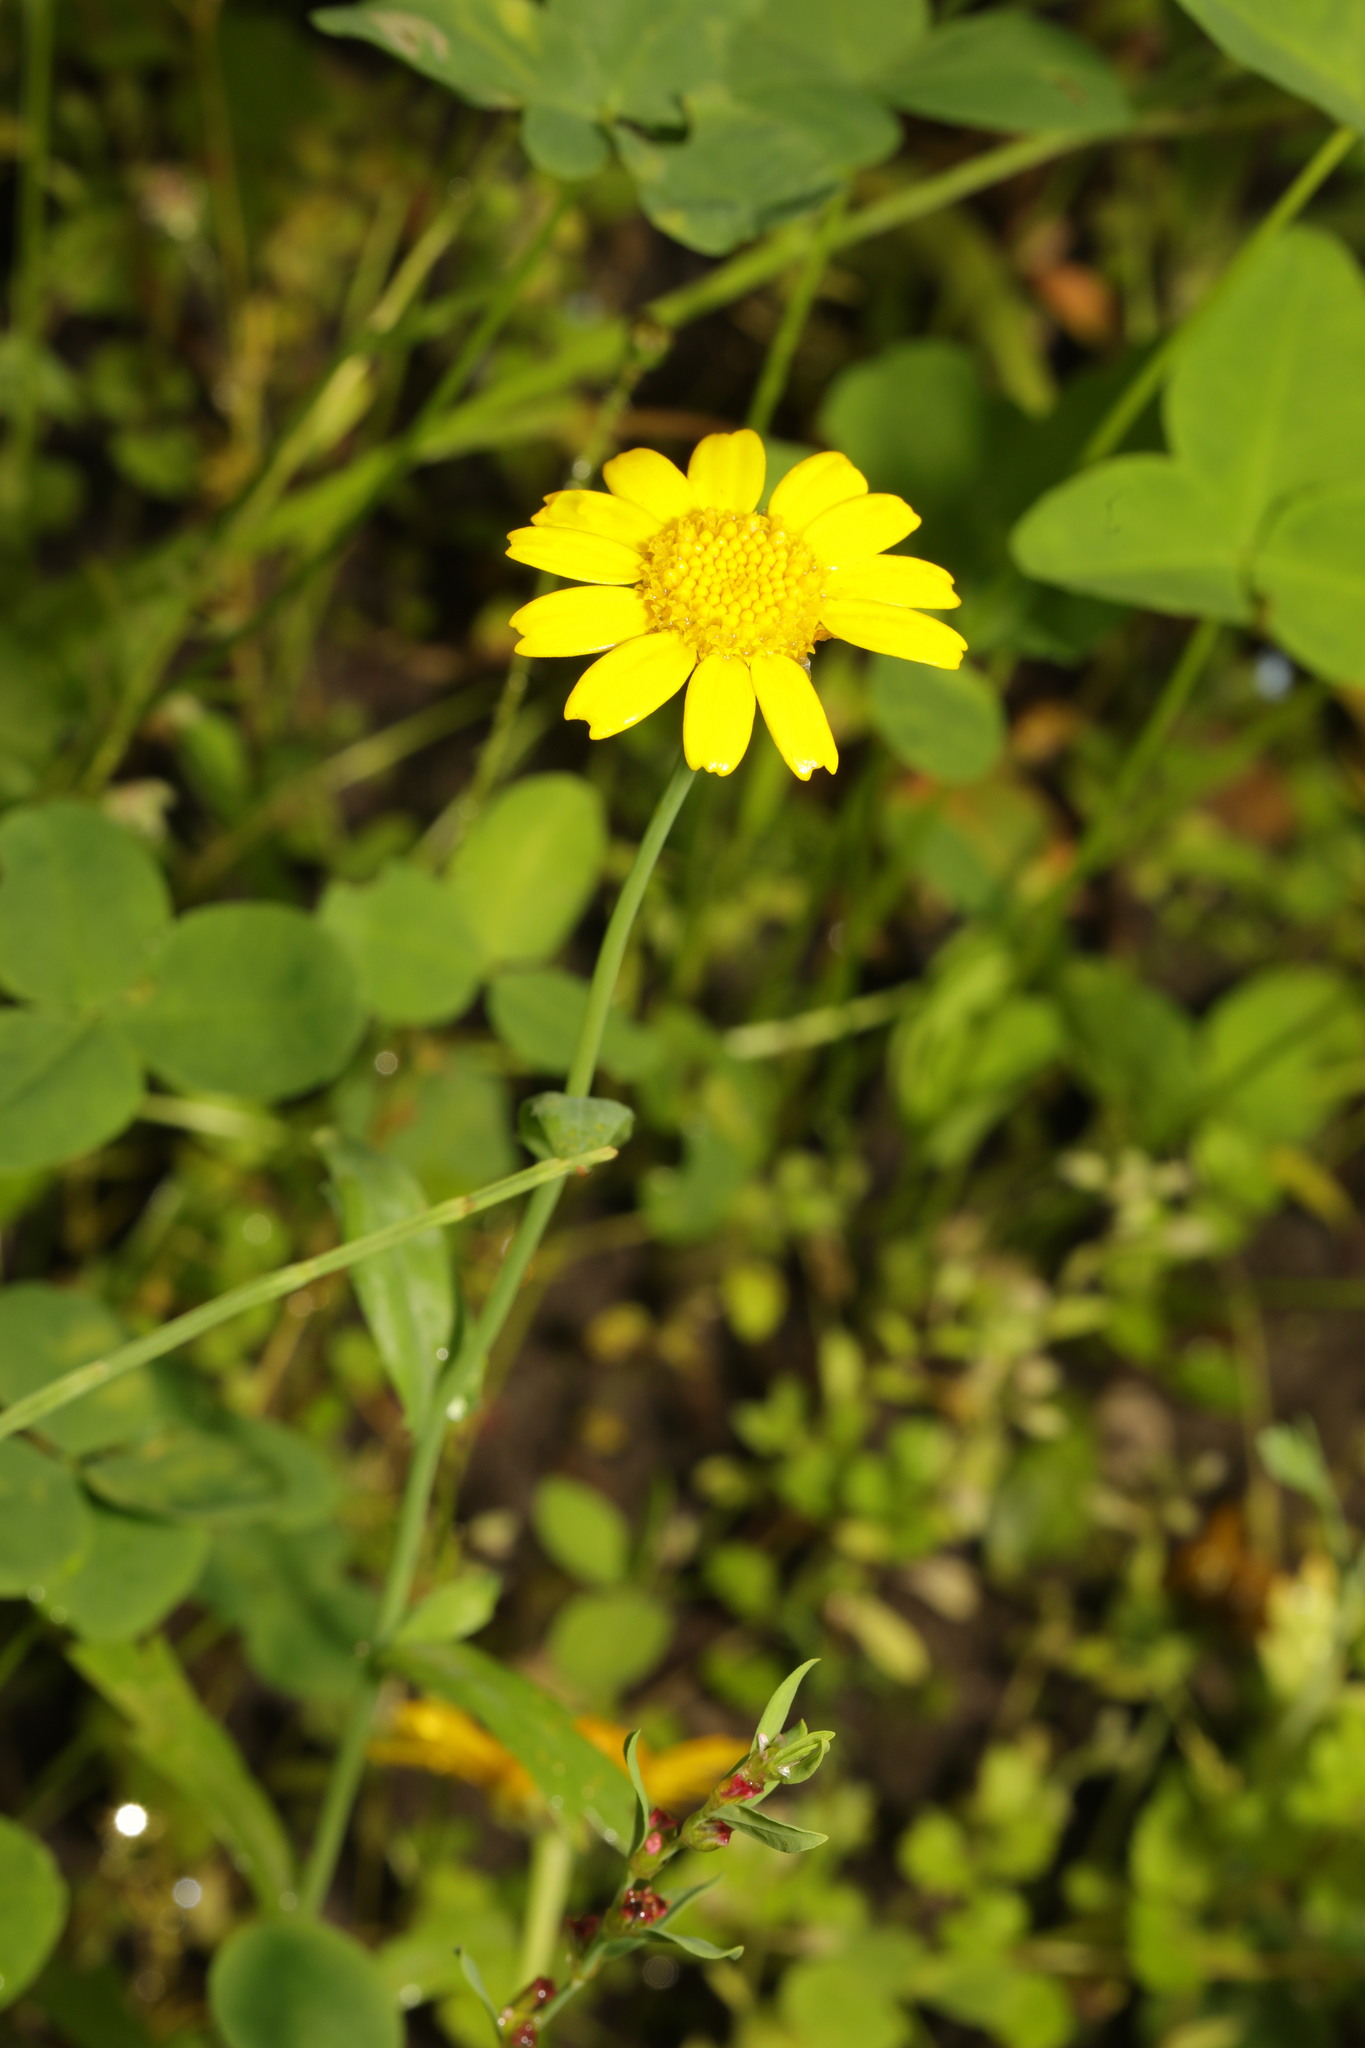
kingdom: Plantae
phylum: Tracheophyta
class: Magnoliopsida
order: Asterales
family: Asteraceae
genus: Glebionis
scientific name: Glebionis segetum
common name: Corndaisy
